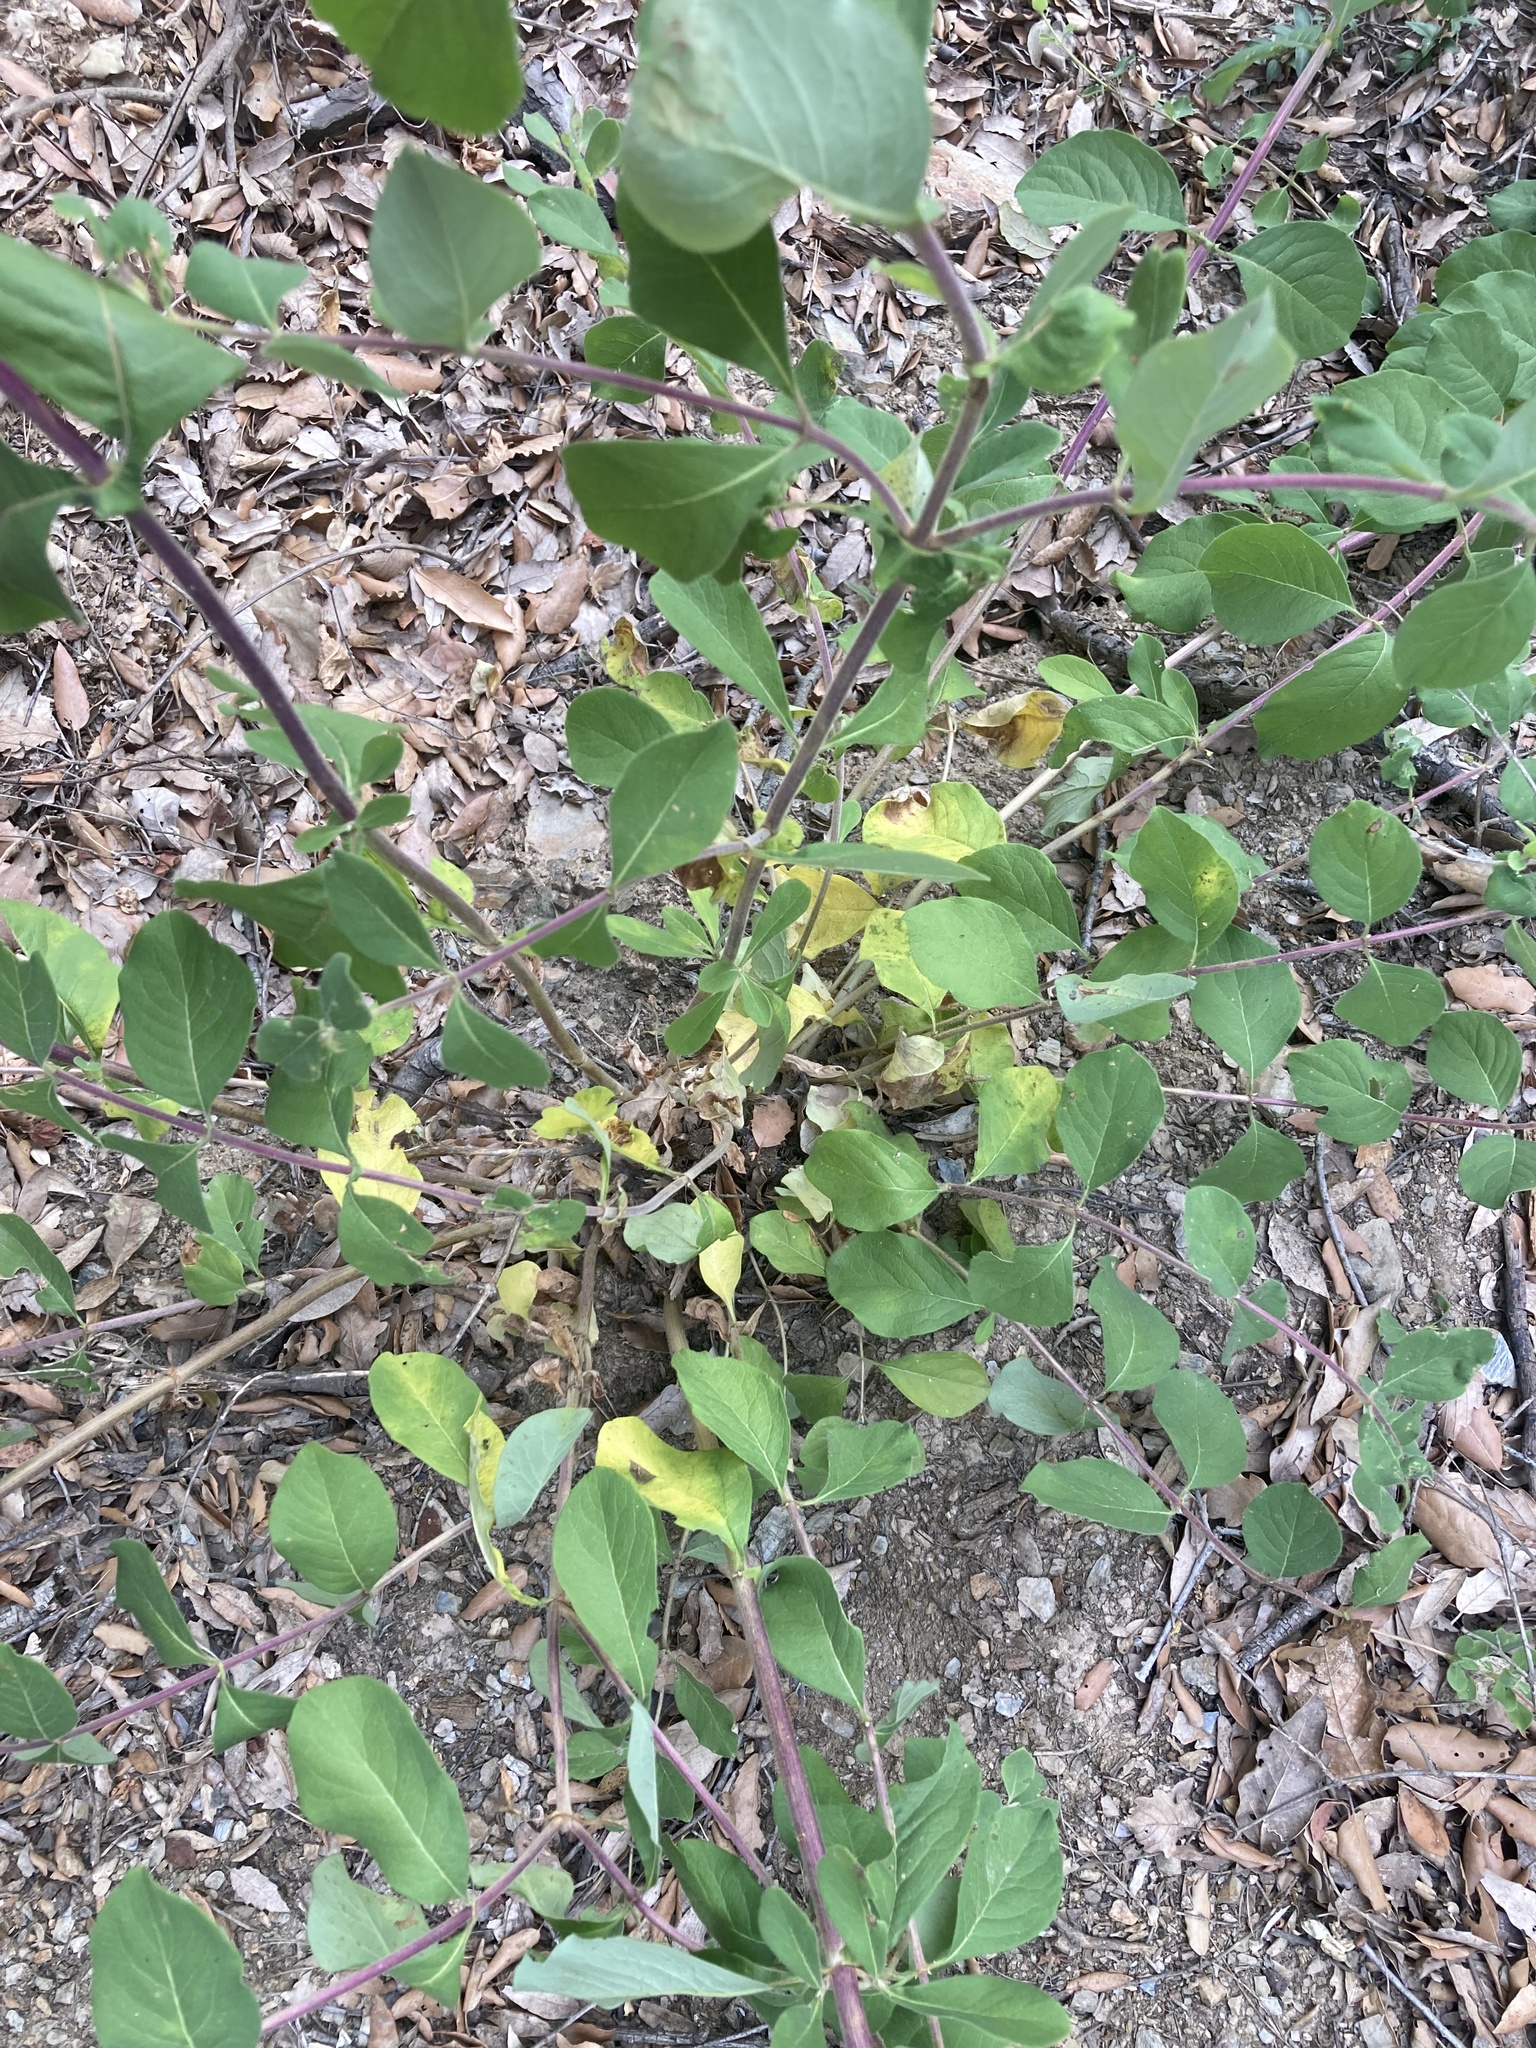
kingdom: Plantae
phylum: Tracheophyta
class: Magnoliopsida
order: Dipsacales
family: Caprifoliaceae
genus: Lonicera
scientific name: Lonicera etrusca
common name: Etruscan honeysuckle
